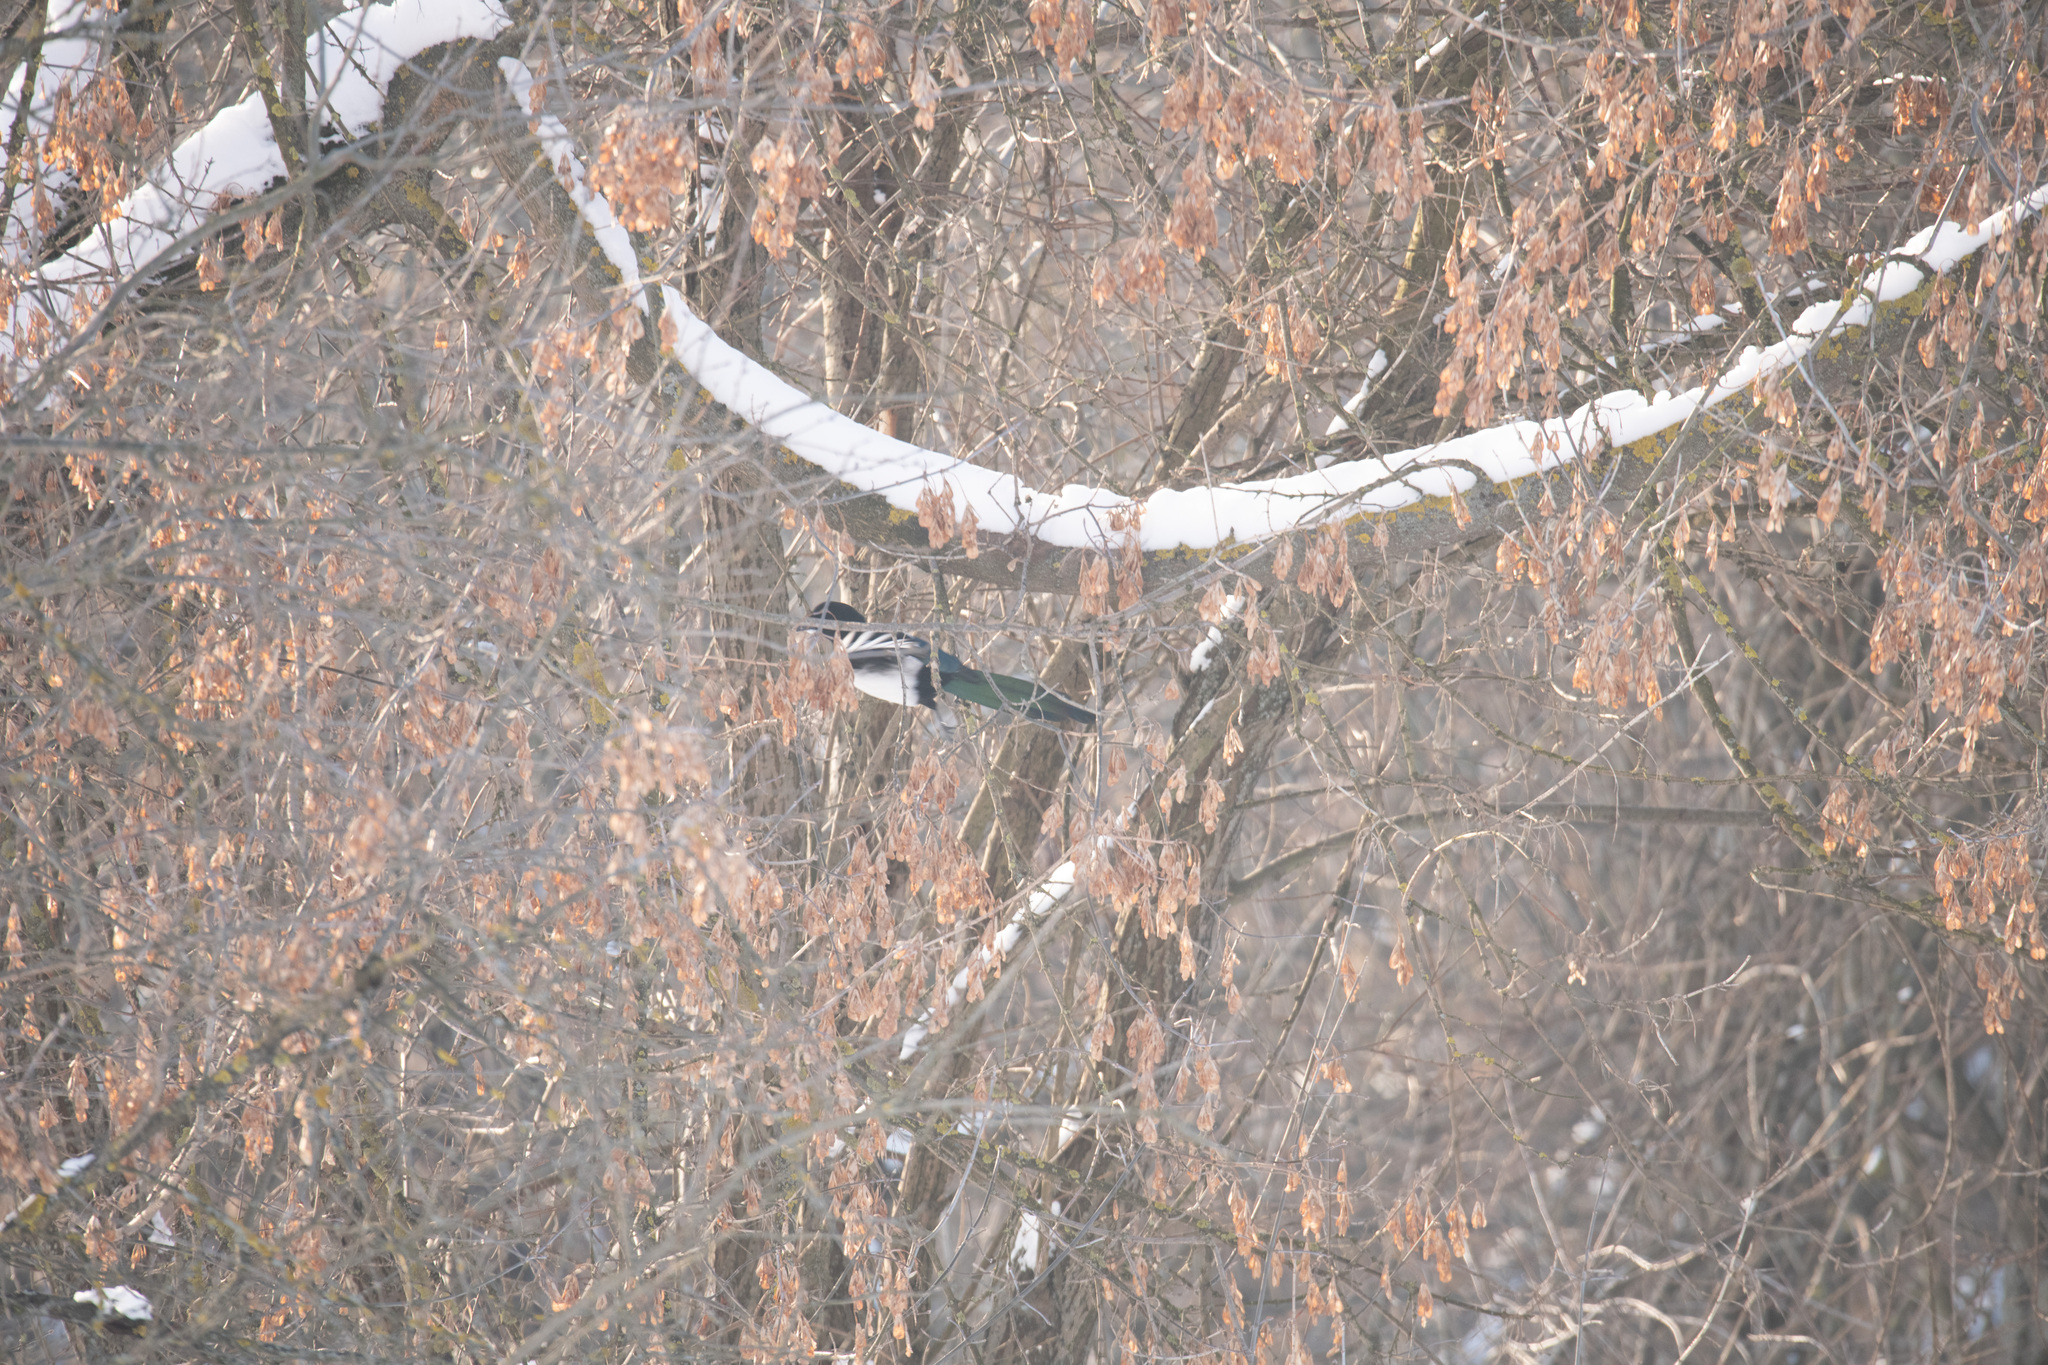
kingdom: Animalia
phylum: Chordata
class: Aves
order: Passeriformes
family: Corvidae
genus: Pica
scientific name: Pica pica
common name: Eurasian magpie
